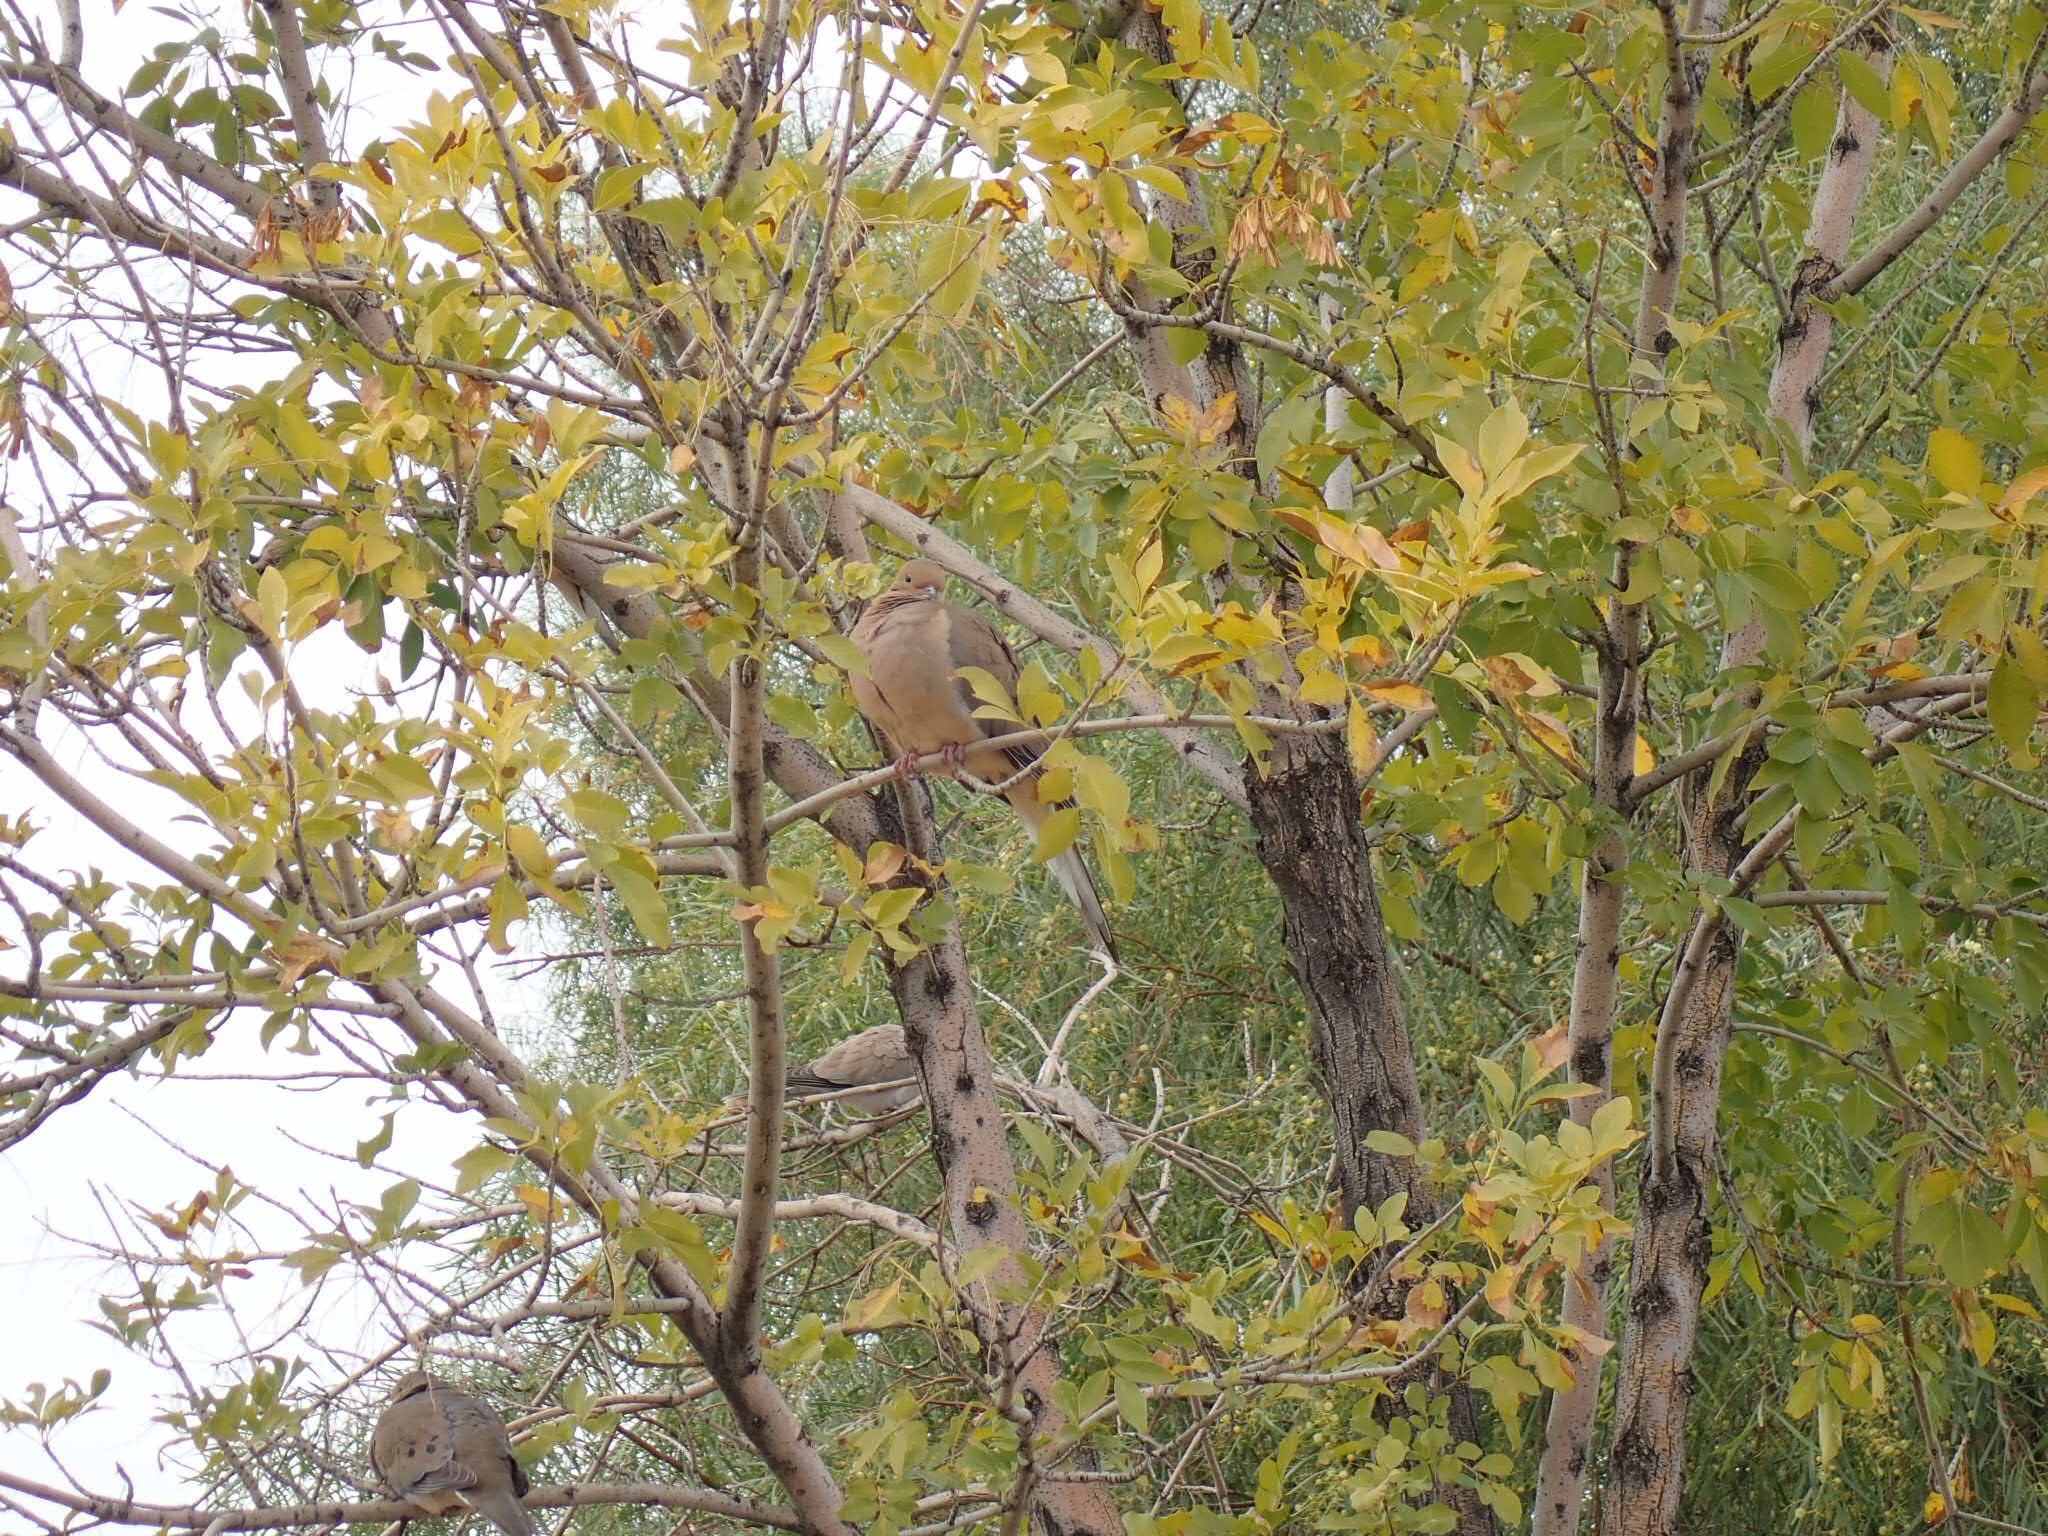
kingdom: Animalia
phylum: Chordata
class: Aves
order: Columbiformes
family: Columbidae
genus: Zenaida
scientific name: Zenaida macroura
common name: Mourning dove
